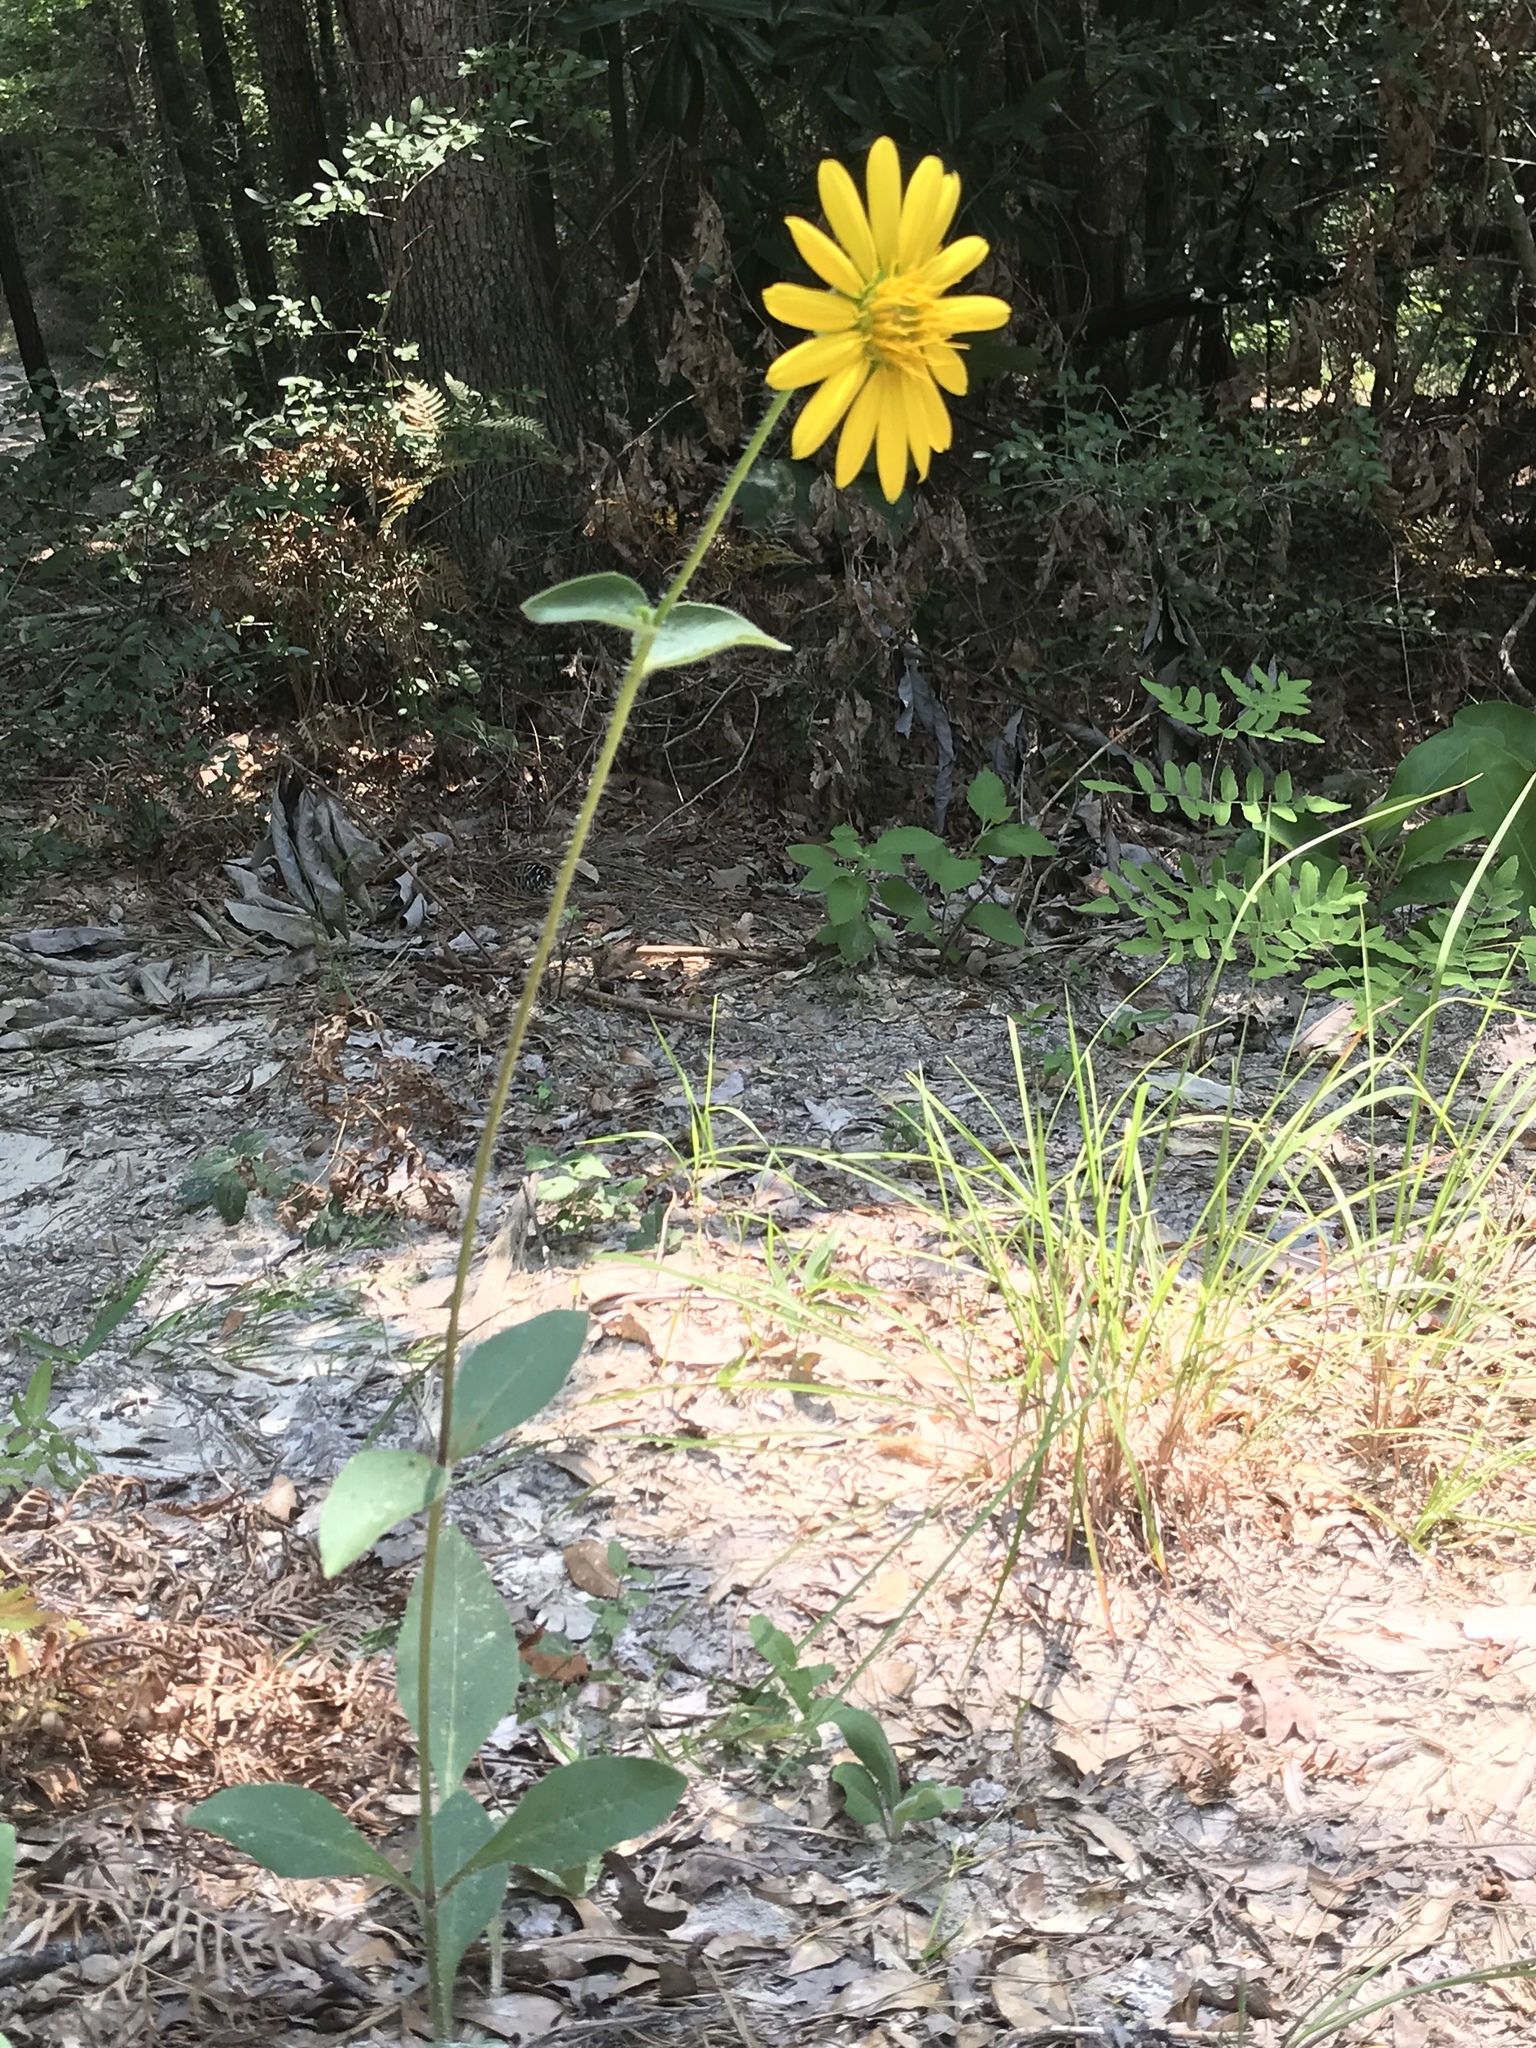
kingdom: Plantae
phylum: Tracheophyta
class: Magnoliopsida
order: Asterales
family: Asteraceae
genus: Silphium
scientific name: Silphium radula
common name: Roughleaf rosinweed
